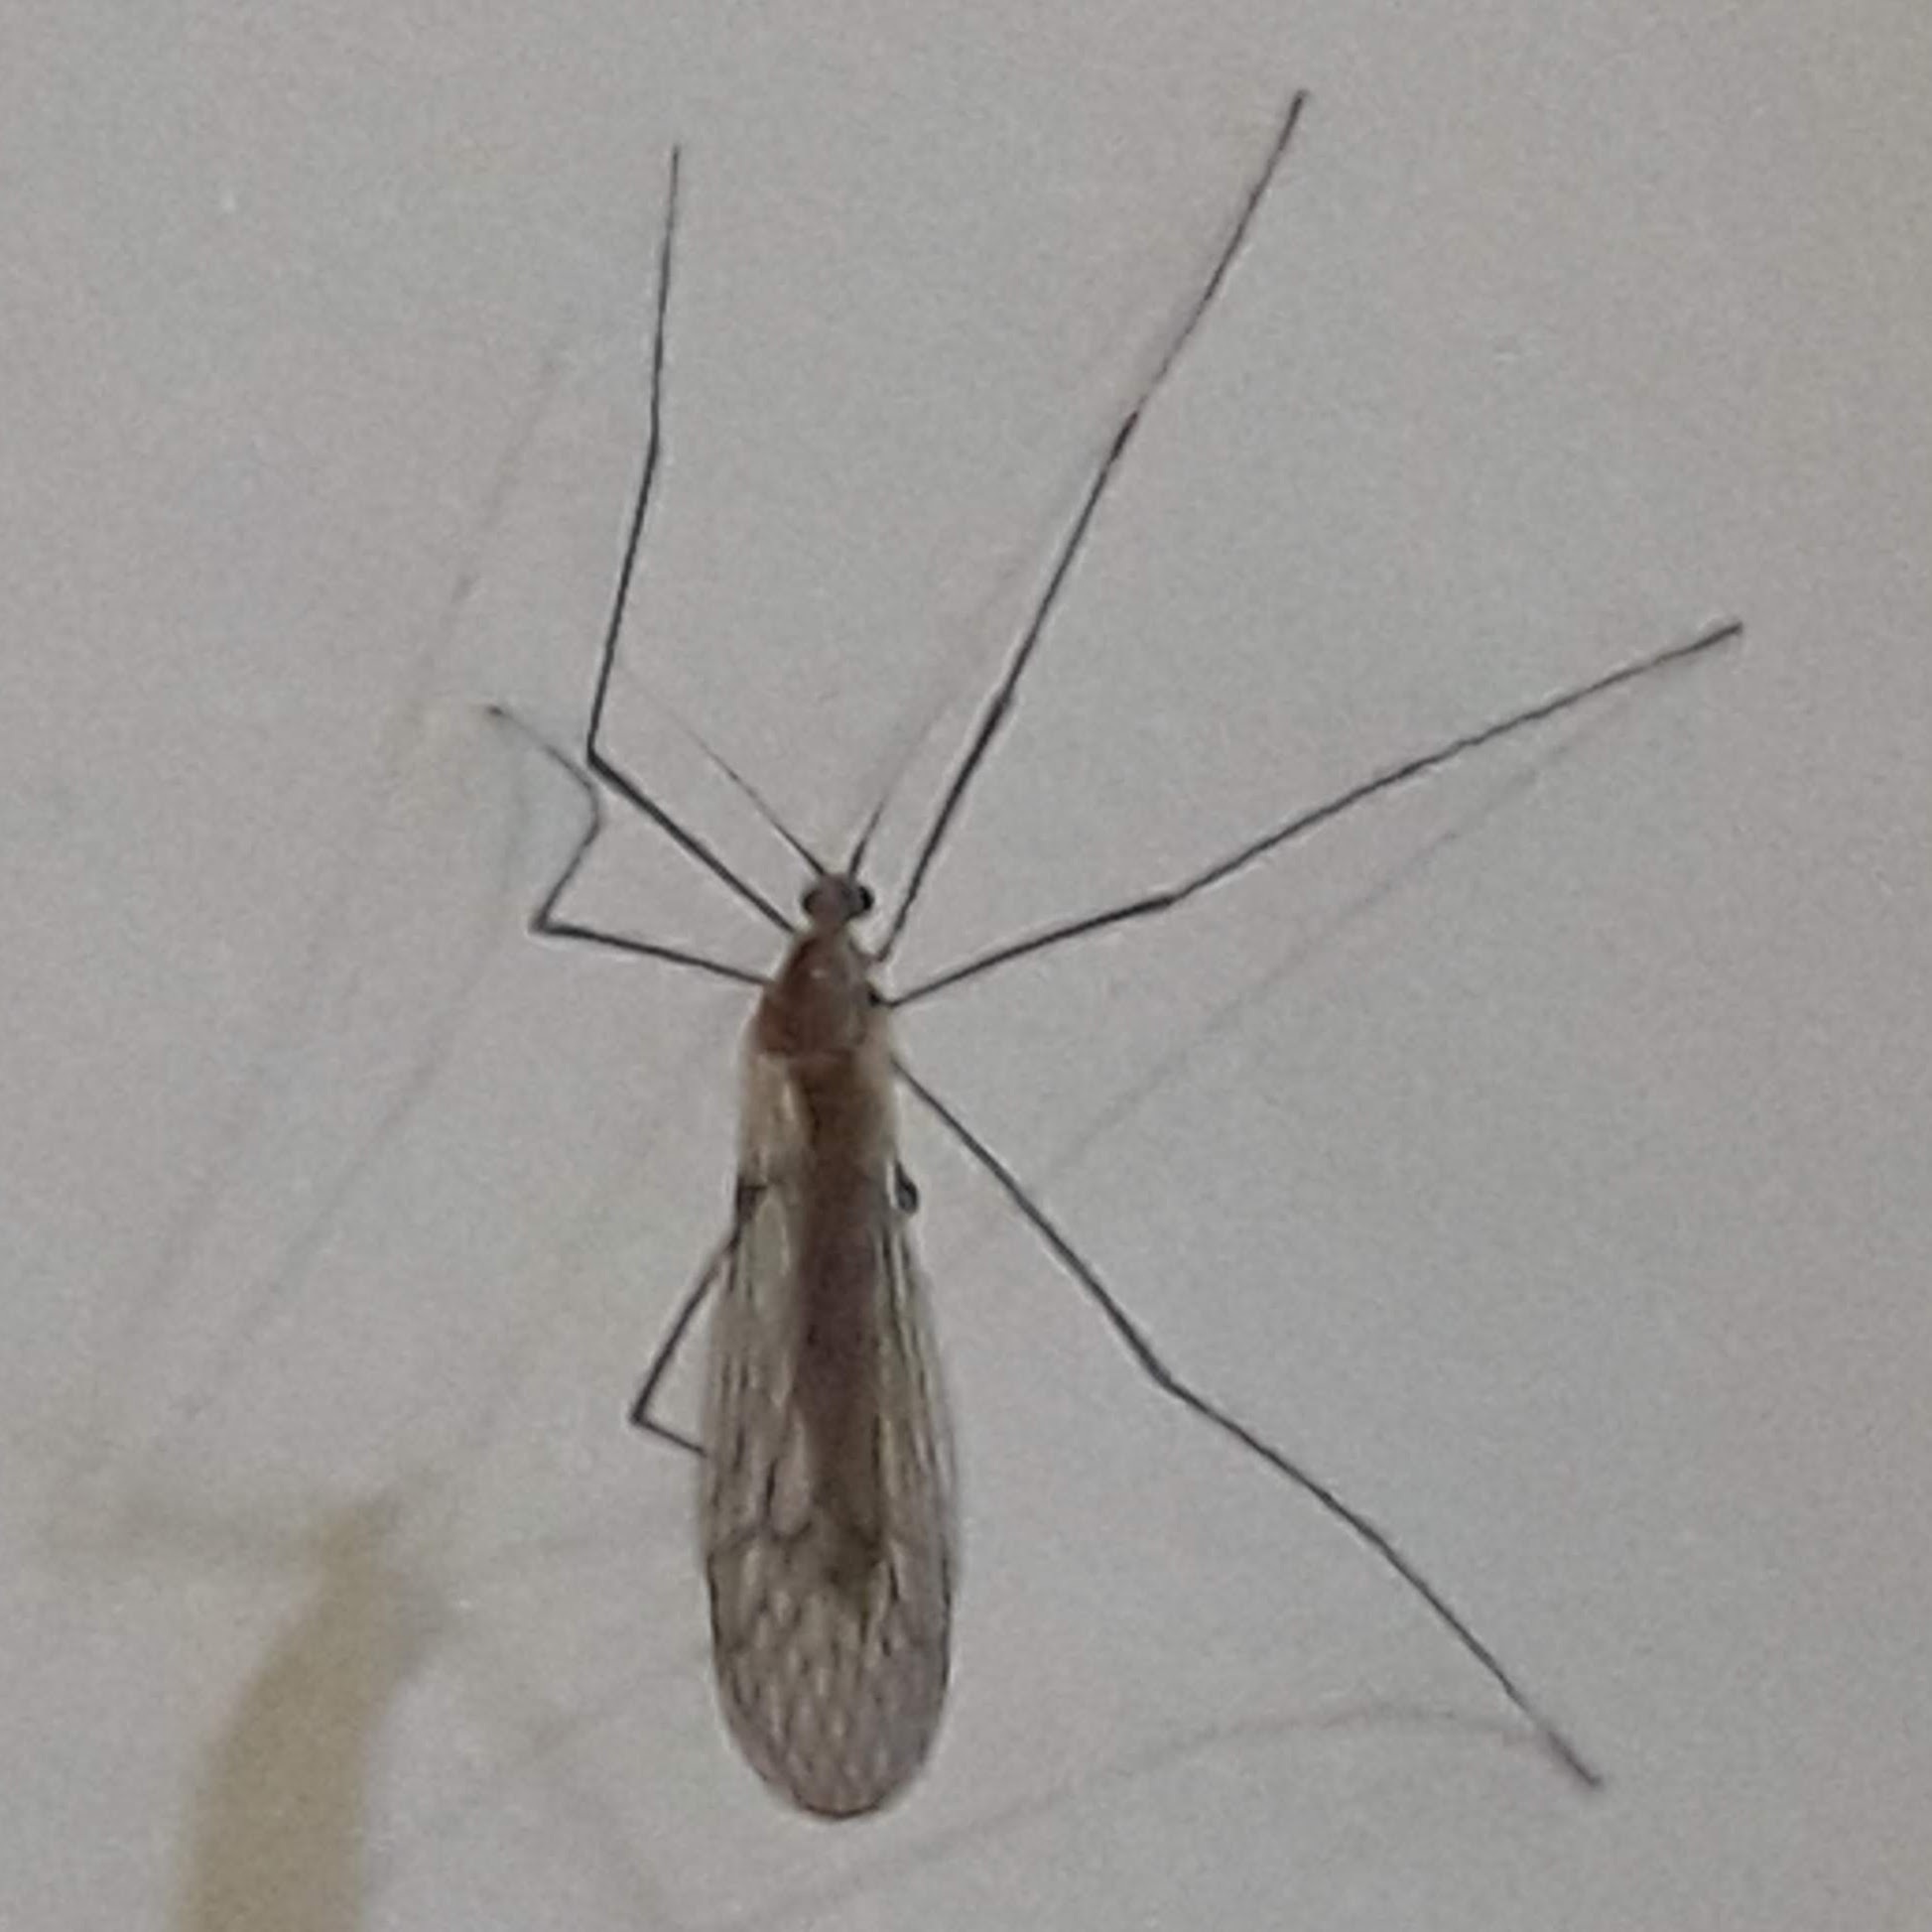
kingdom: Animalia
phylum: Arthropoda
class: Insecta
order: Diptera
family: Trichoceridae
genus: Trichocera
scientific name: Trichocera annulata
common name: Winter gnat
